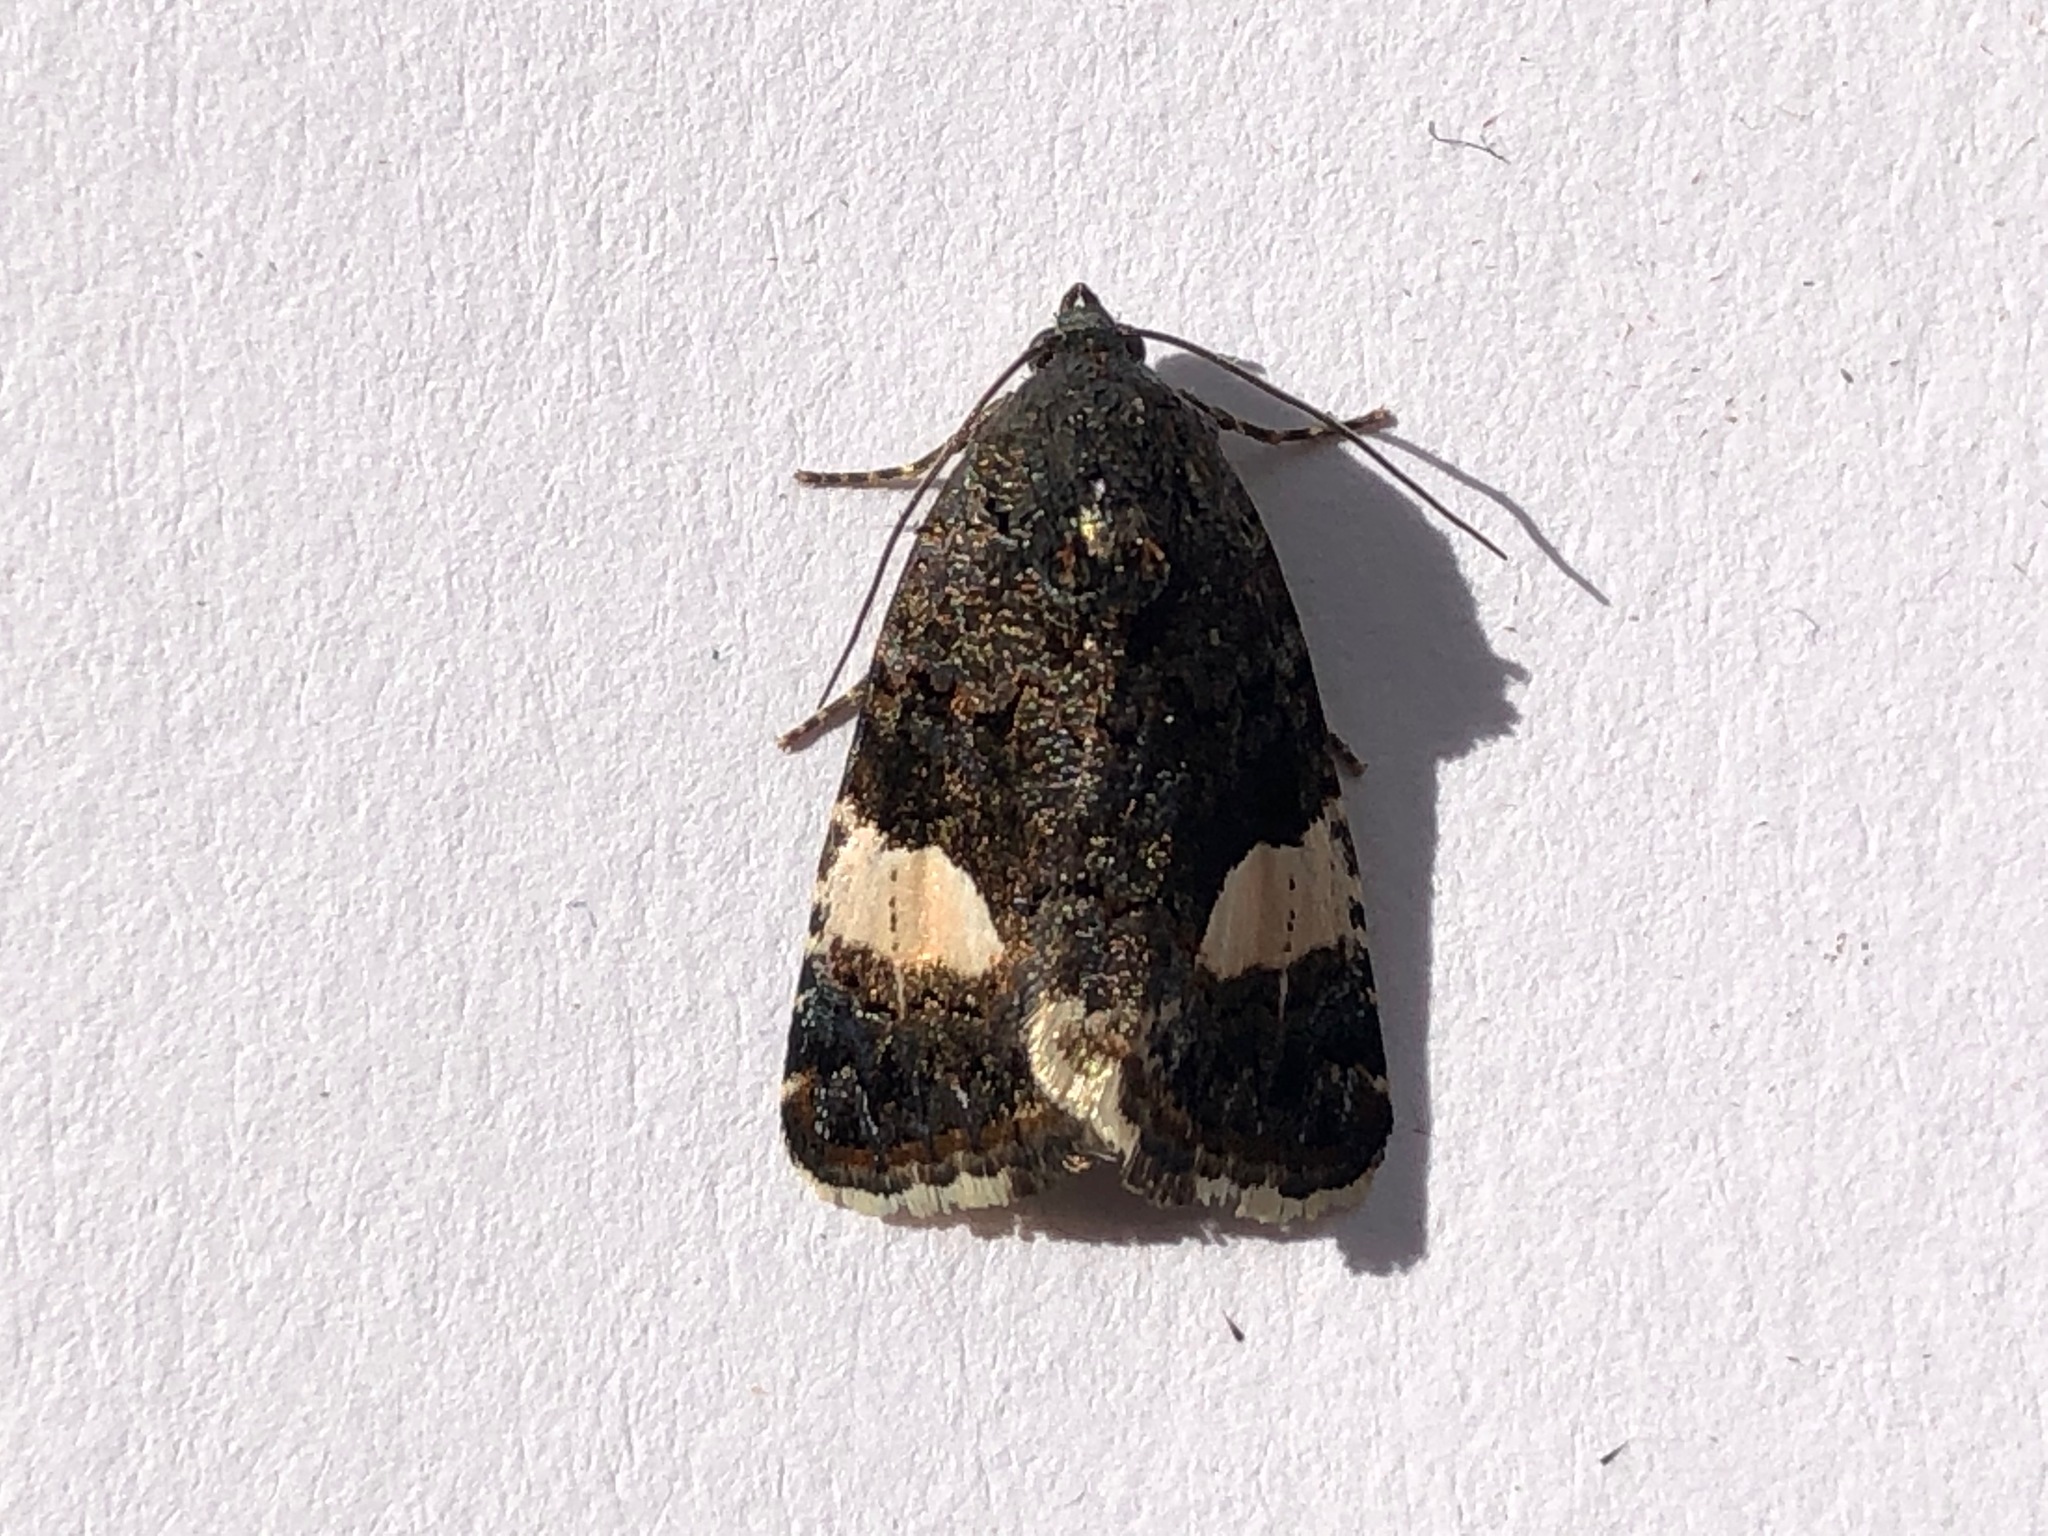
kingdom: Animalia
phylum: Arthropoda
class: Insecta
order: Lepidoptera
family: Erebidae
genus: Tyta
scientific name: Tyta luctuosa
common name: Four-spotted
